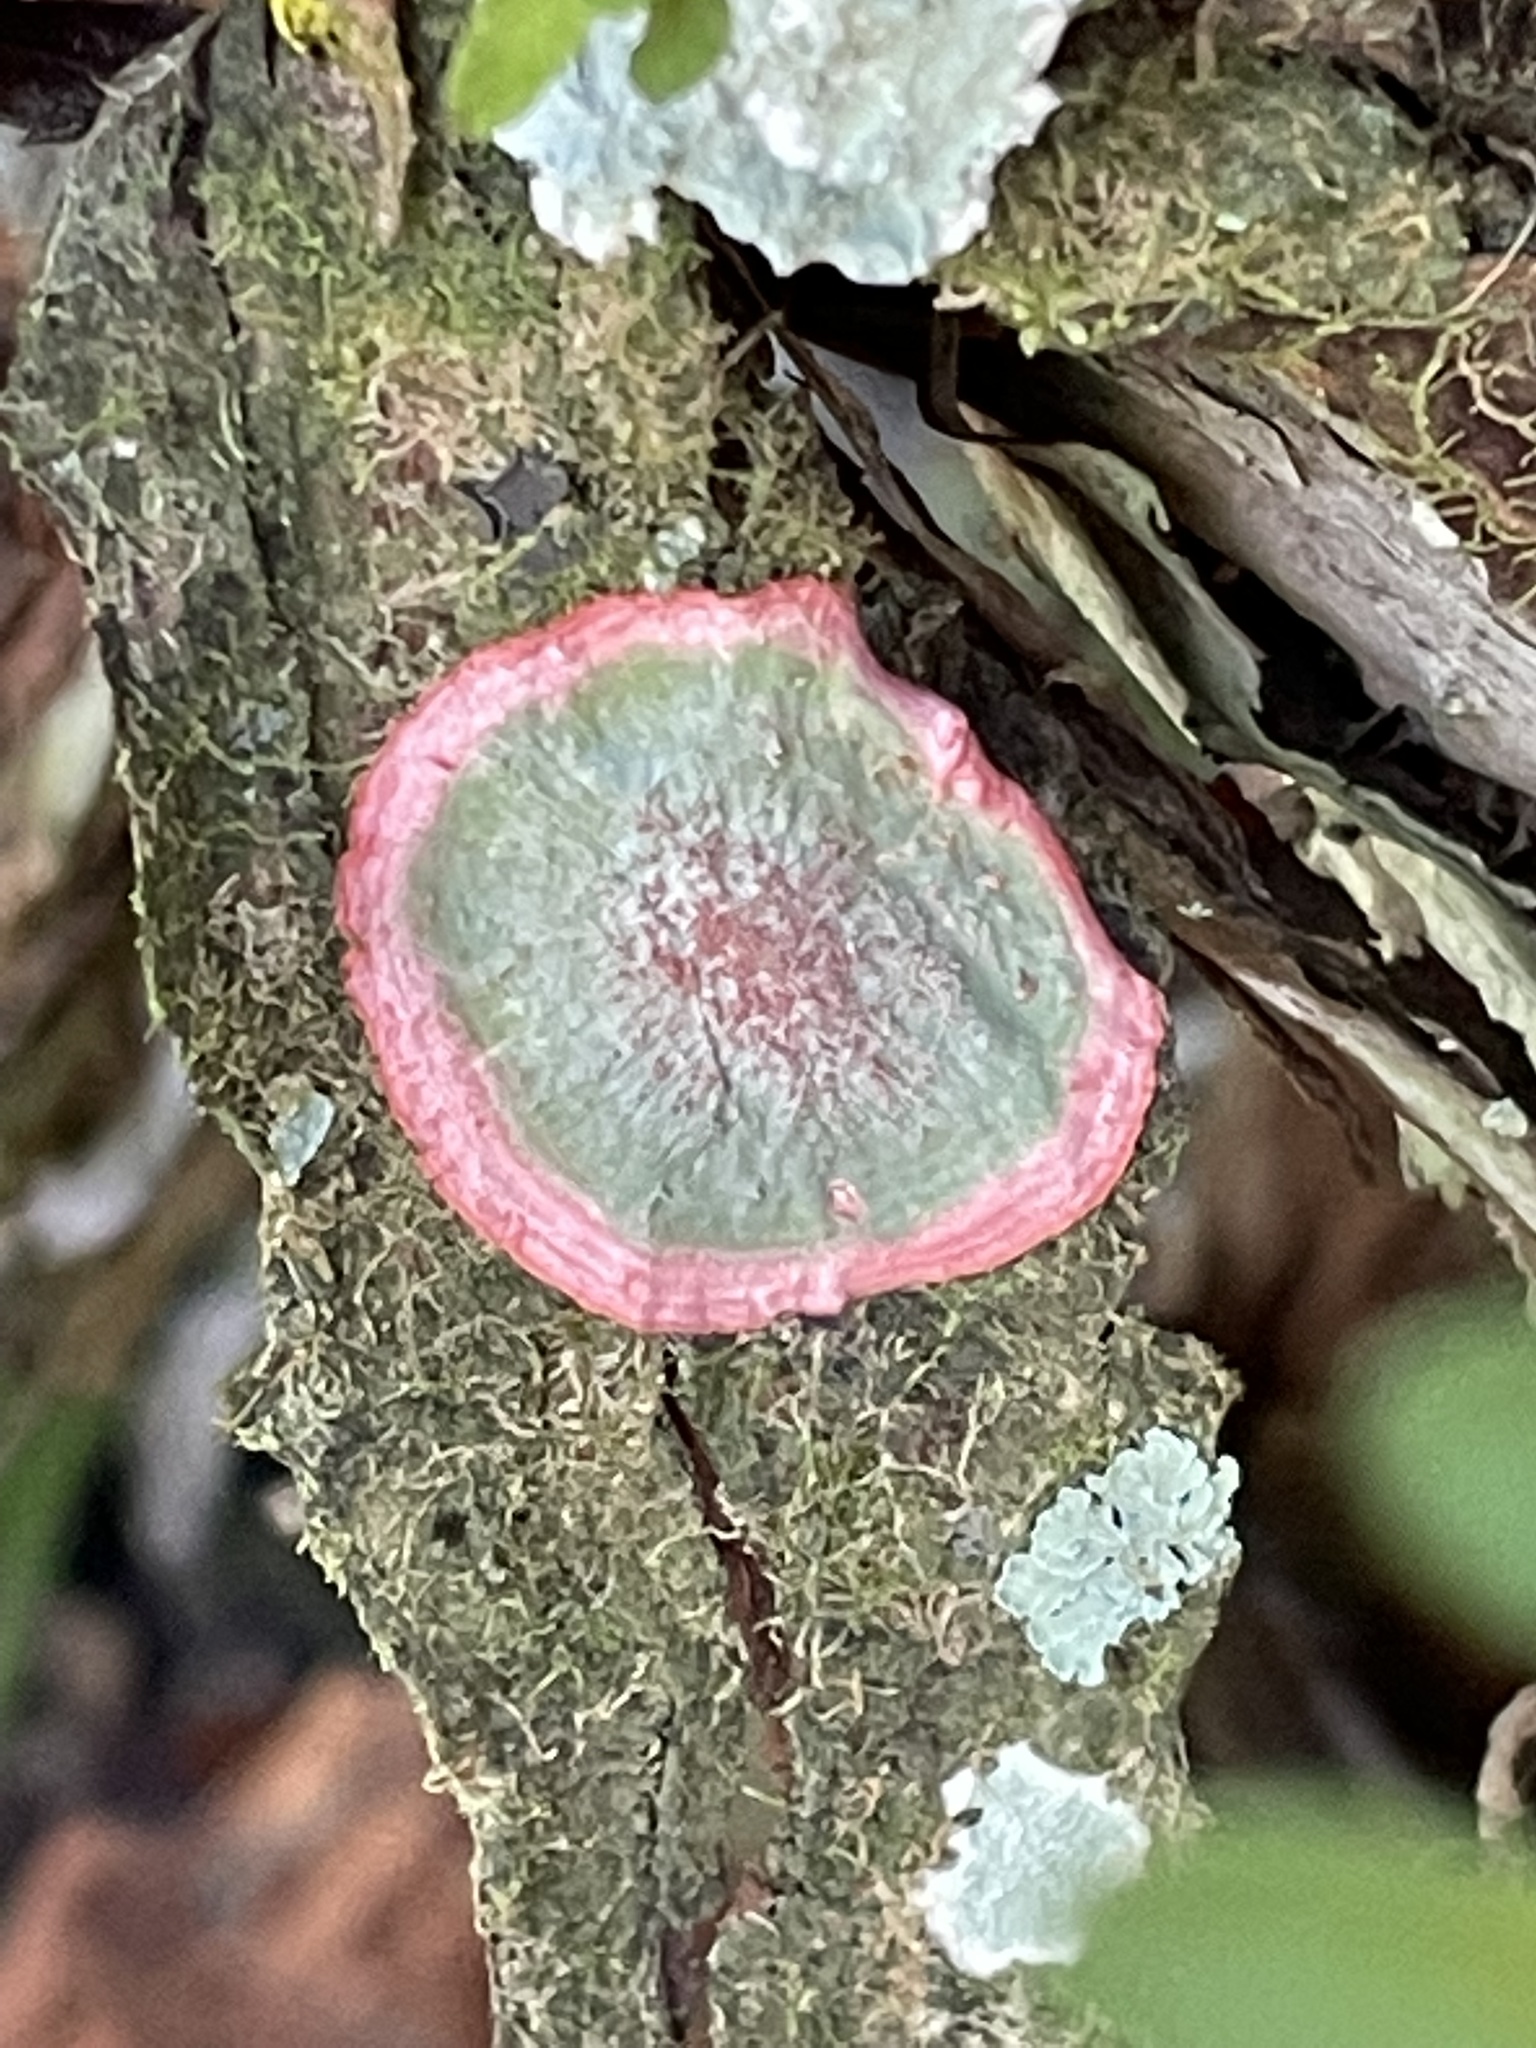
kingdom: Fungi
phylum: Ascomycota
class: Arthoniomycetes
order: Arthoniales
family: Arthoniaceae
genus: Herpothallon
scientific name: Herpothallon rubrocinctum
